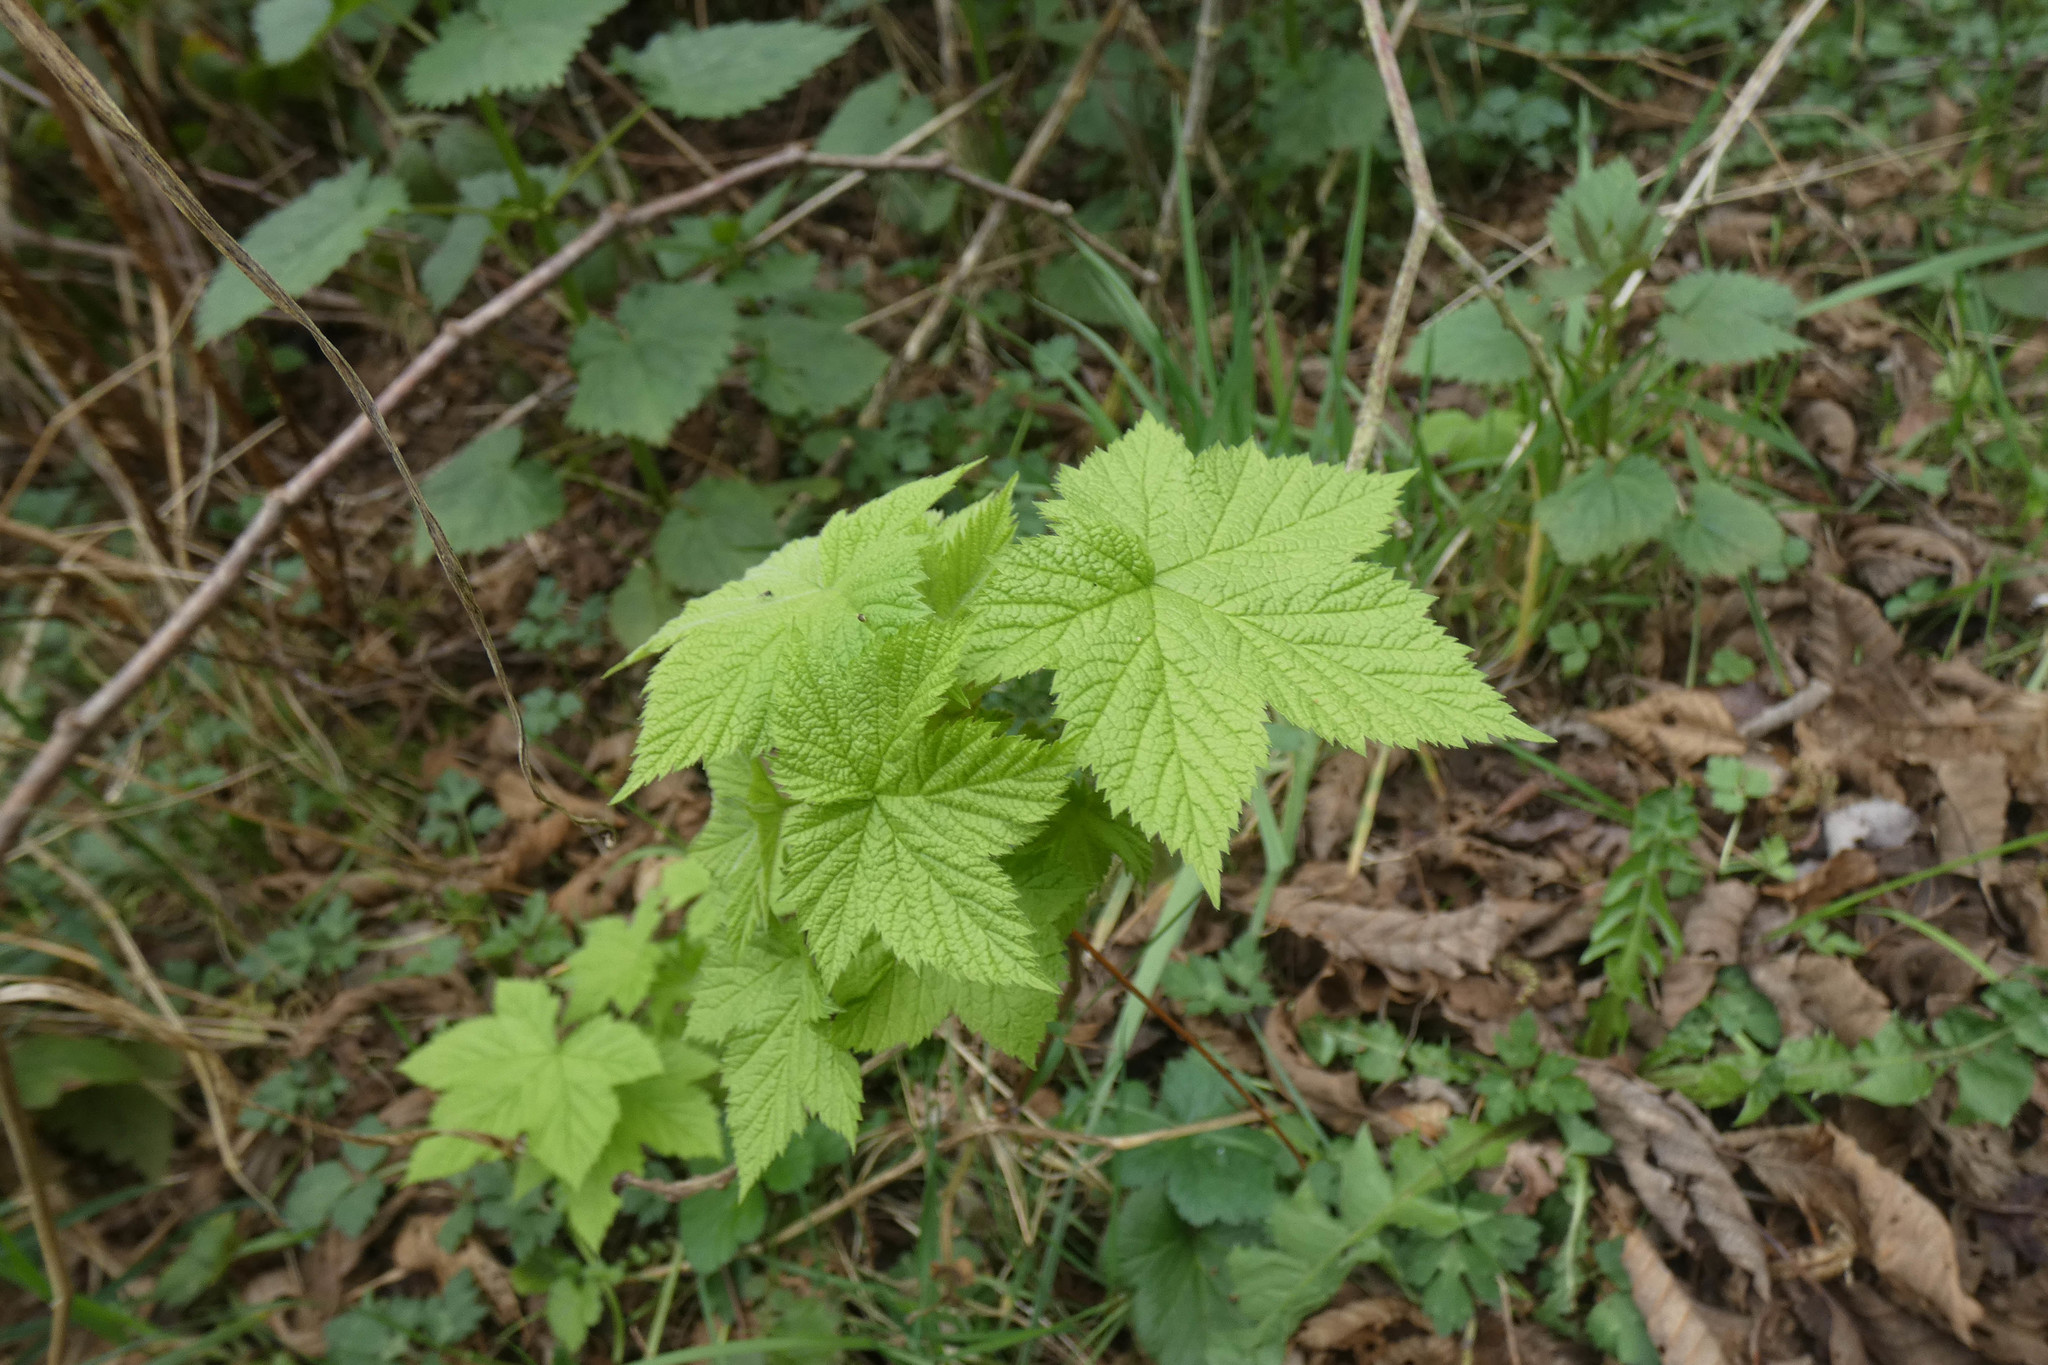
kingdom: Plantae
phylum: Tracheophyta
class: Magnoliopsida
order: Rosales
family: Rosaceae
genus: Rubus
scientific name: Rubus parviflorus
